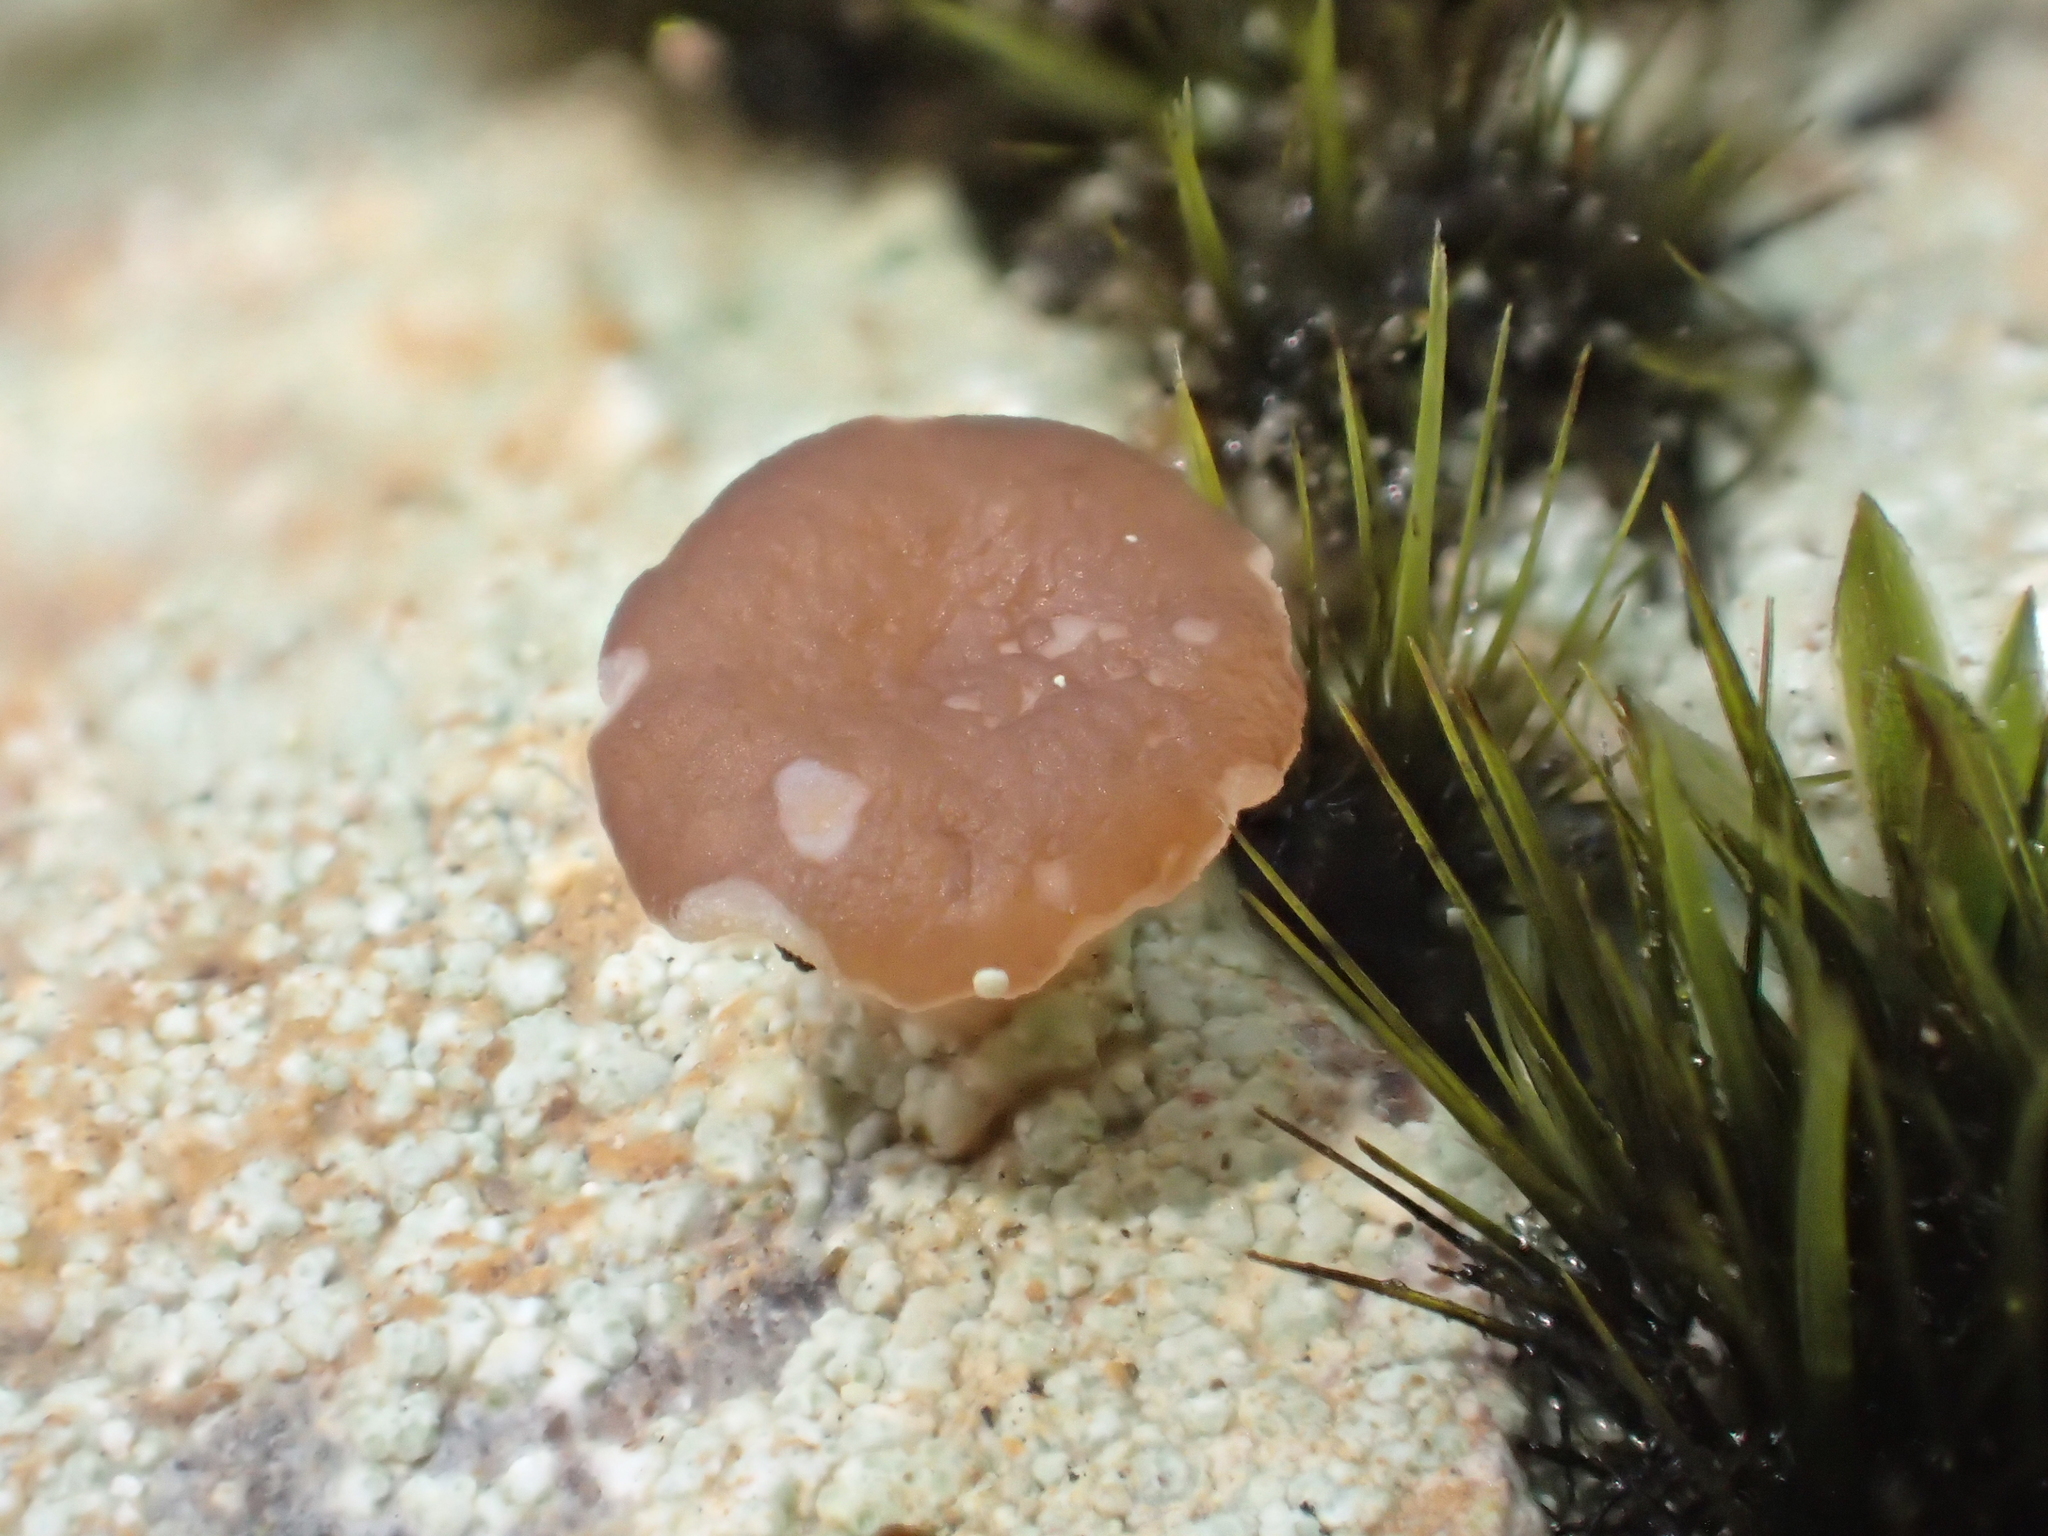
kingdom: Fungi
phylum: Ascomycota
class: Lecanoromycetes
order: Baeomycetales
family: Baeomycetaceae
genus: Baeomyces
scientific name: Baeomyces heteromorphus
